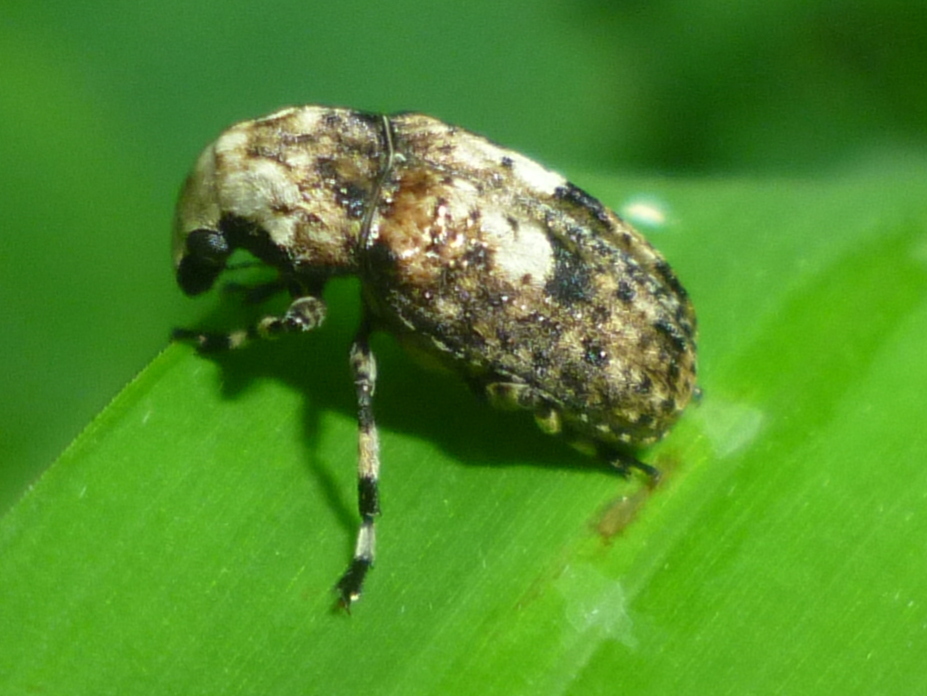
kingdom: Animalia
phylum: Arthropoda
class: Insecta
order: Coleoptera
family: Anthribidae
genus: Euparius
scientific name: Euparius marmoreus
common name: Marbled fungus weevil
